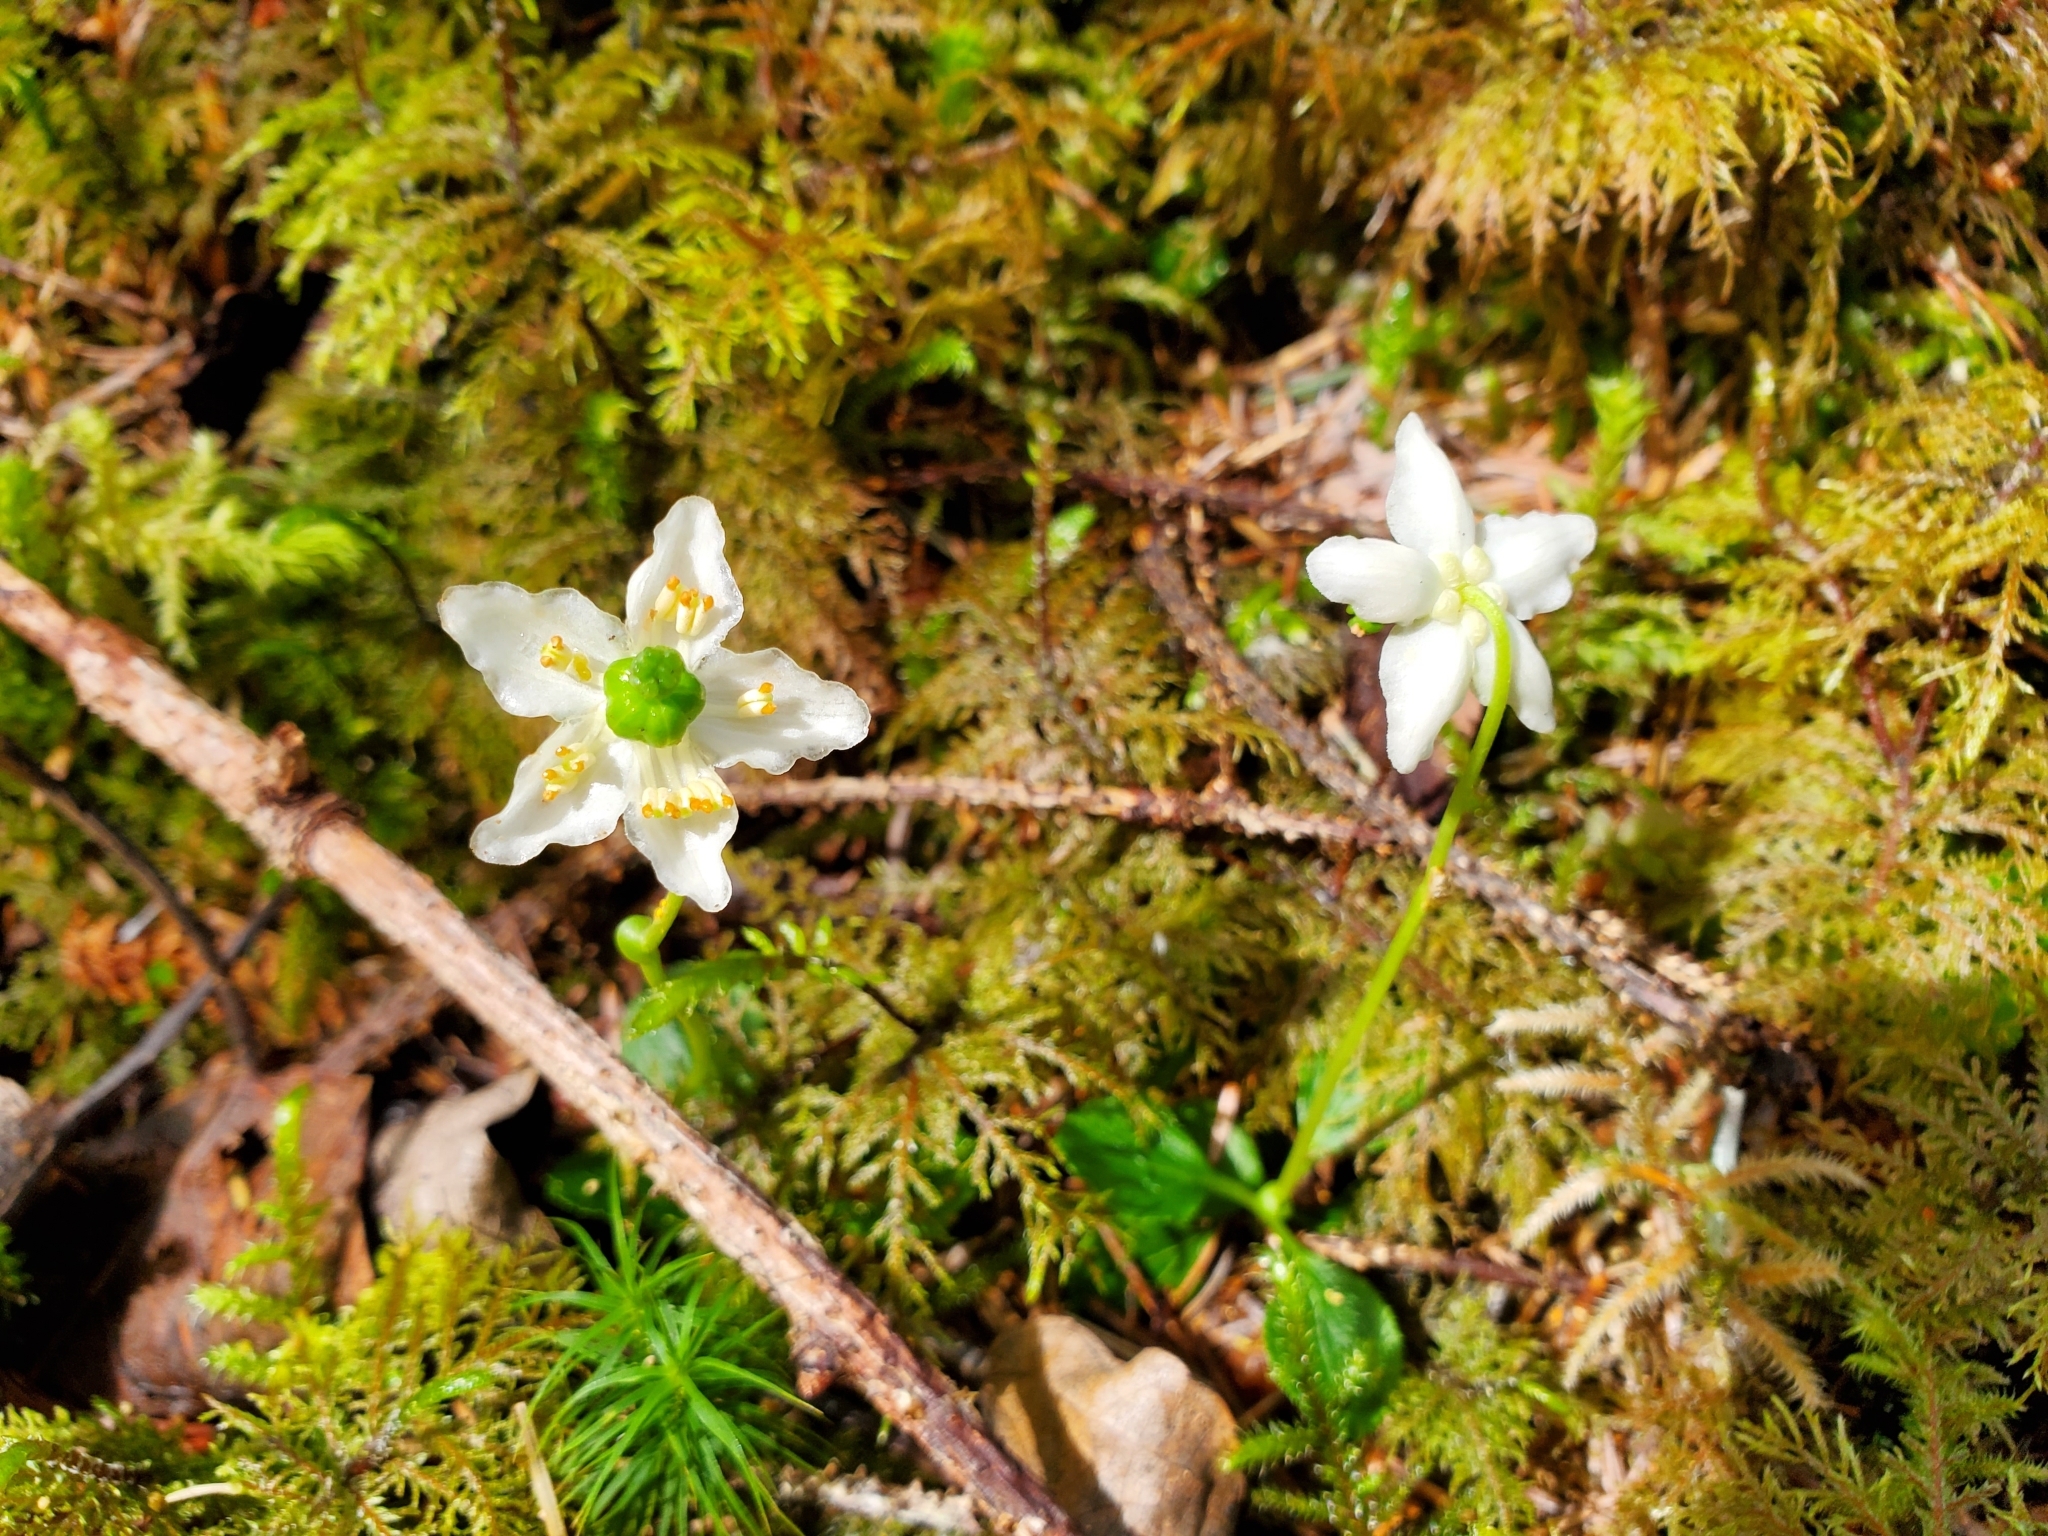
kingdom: Plantae
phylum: Tracheophyta
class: Magnoliopsida
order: Ericales
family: Ericaceae
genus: Moneses
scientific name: Moneses uniflora
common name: One-flowered wintergreen
